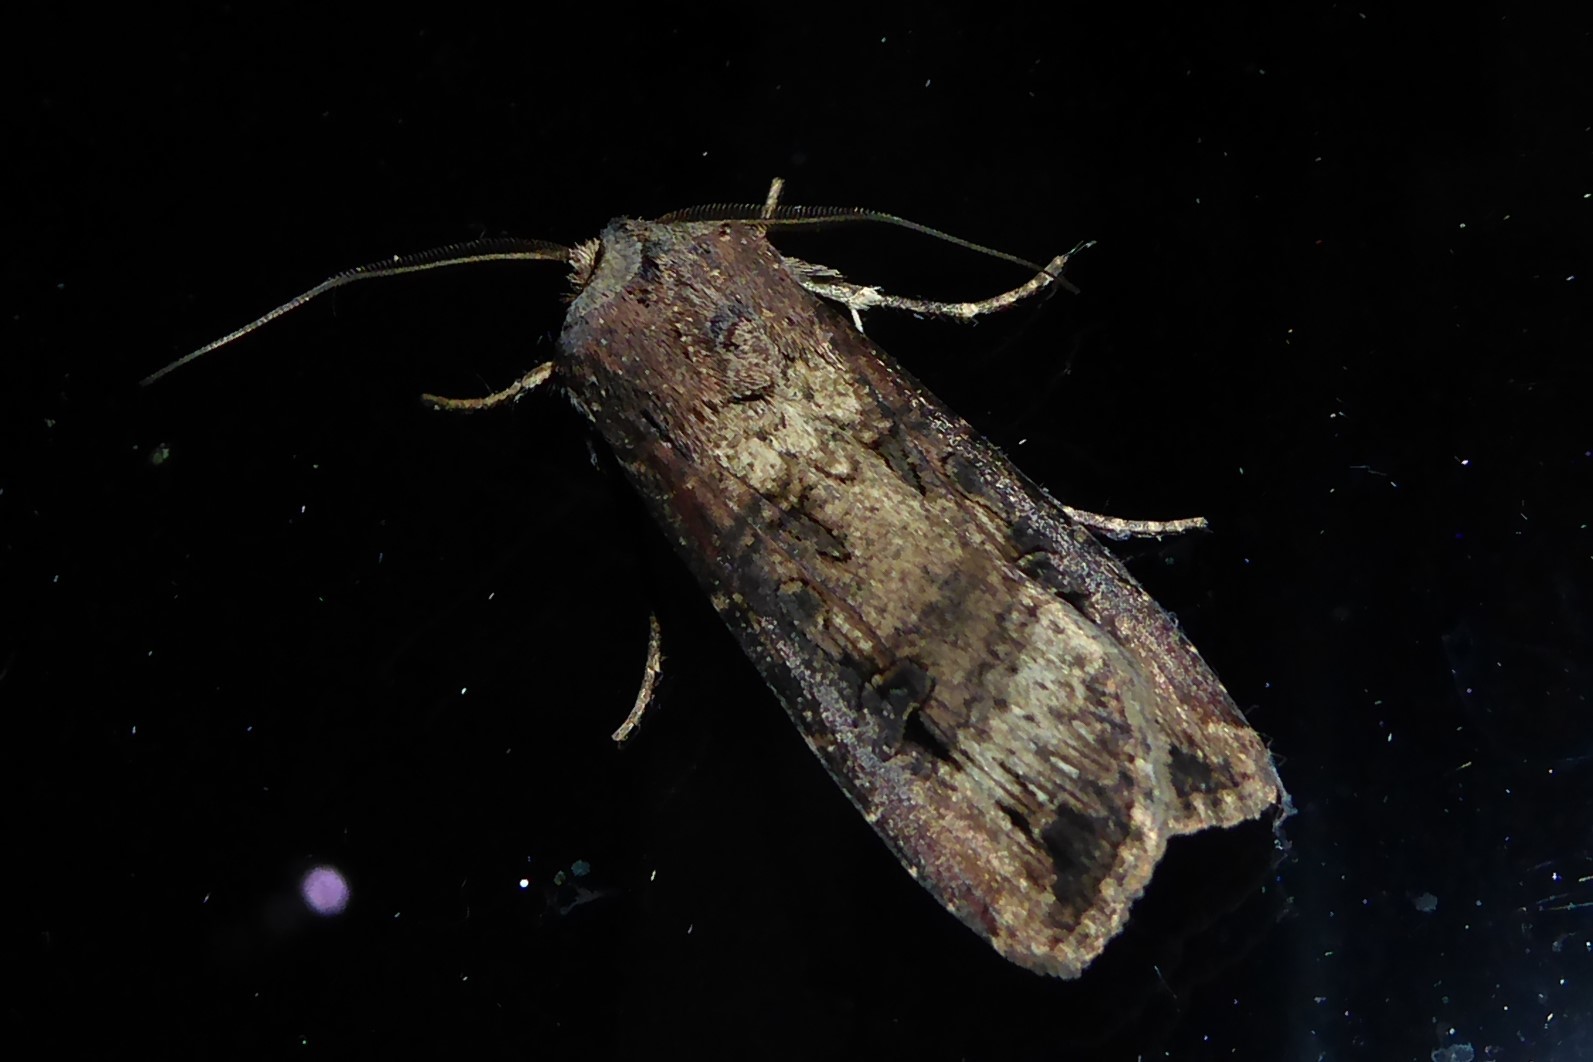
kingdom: Animalia
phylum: Arthropoda
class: Insecta
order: Lepidoptera
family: Noctuidae
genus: Agrotis
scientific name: Agrotis ipsilon
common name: Dark sword-grass
